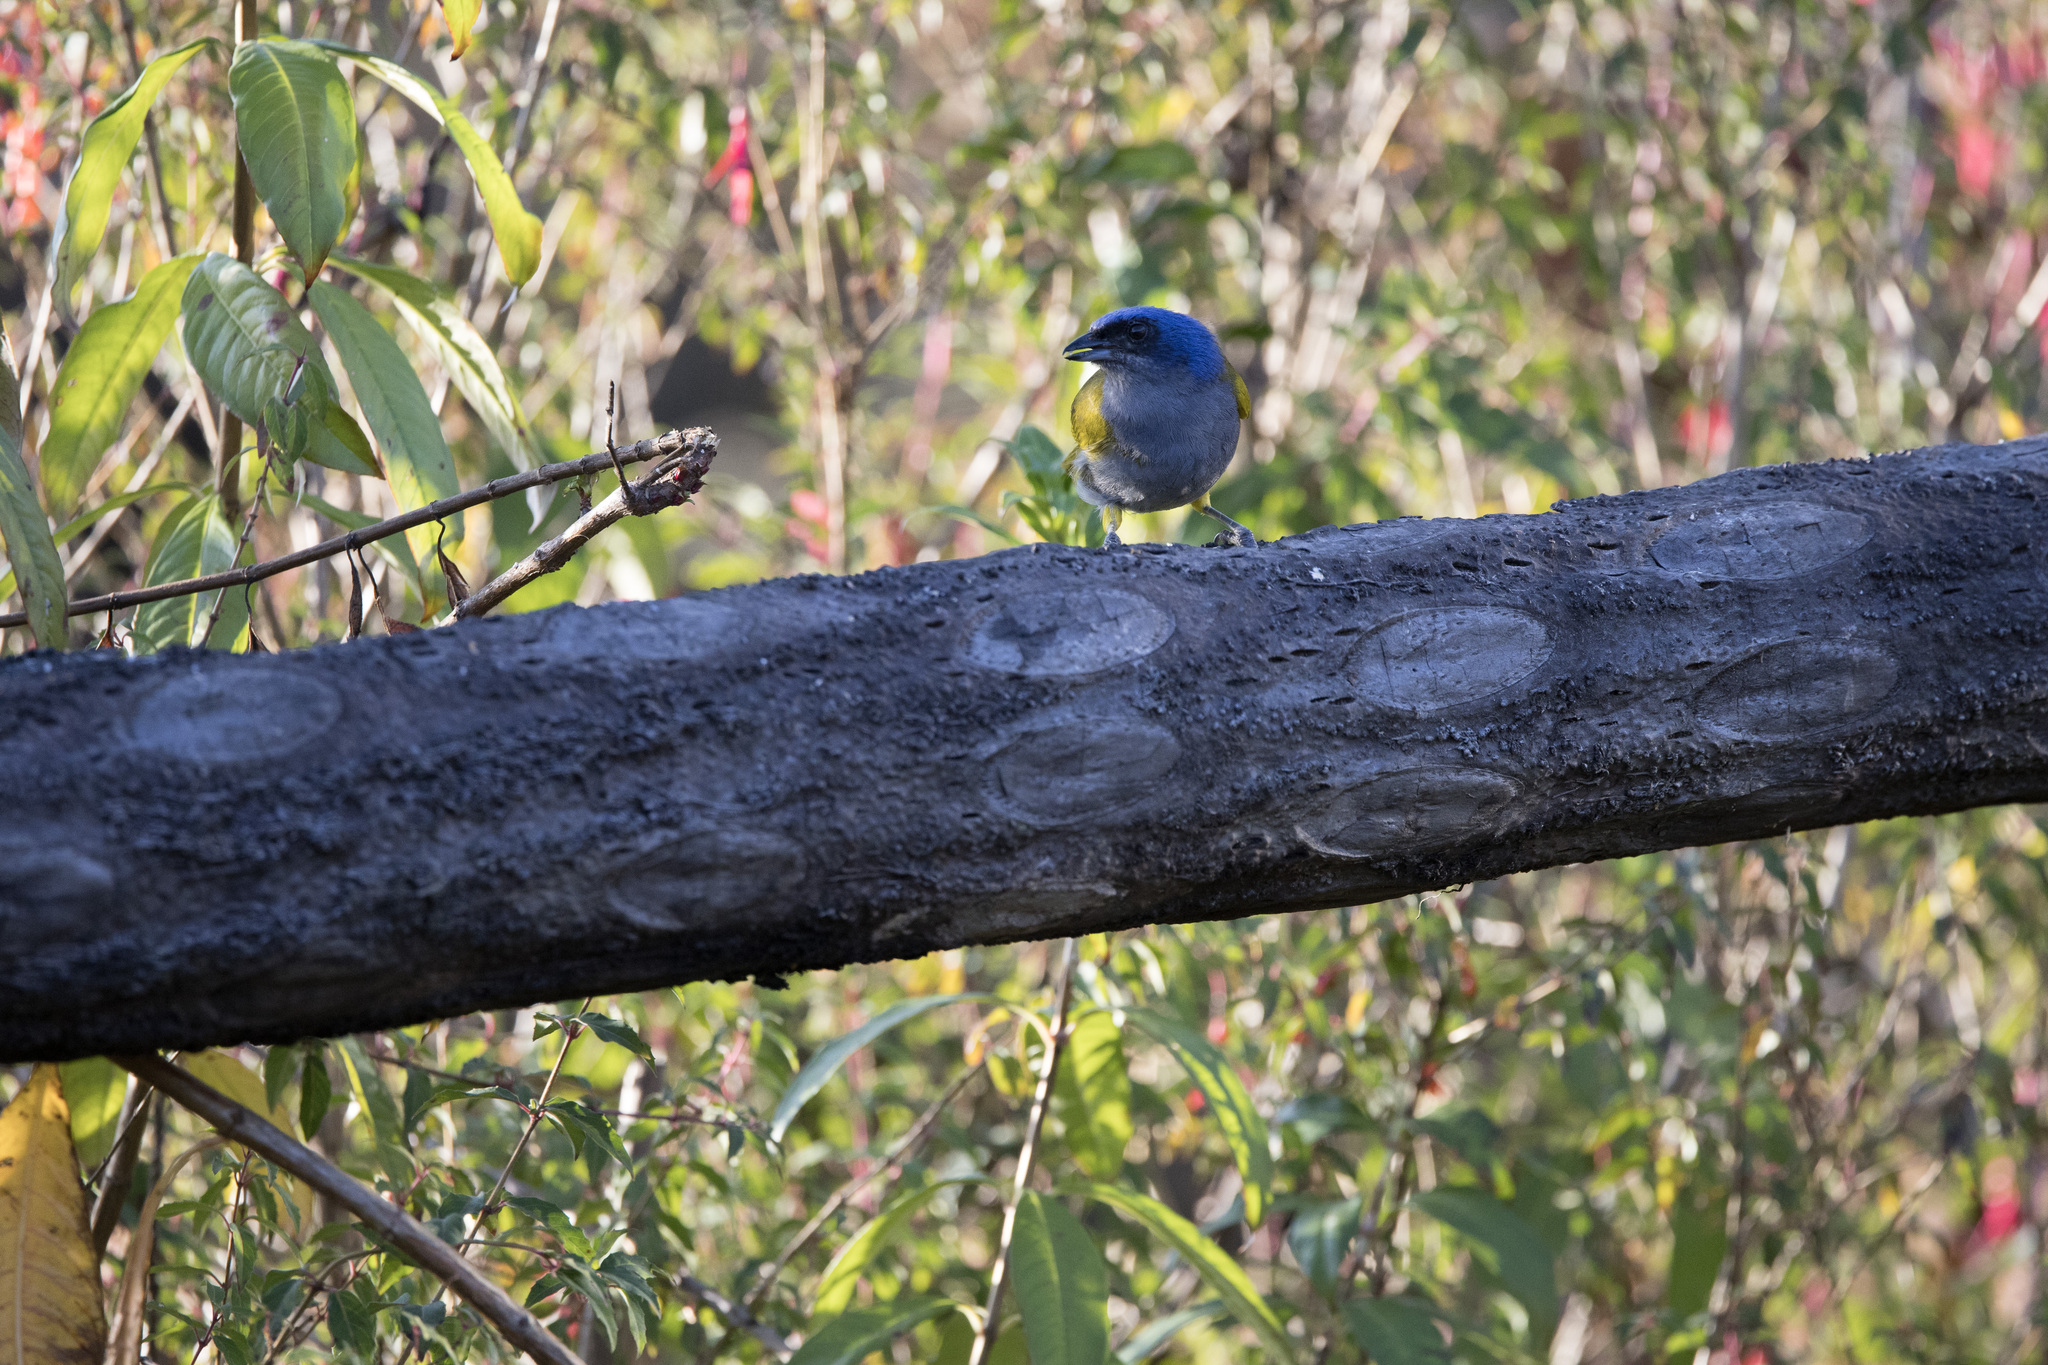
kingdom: Animalia
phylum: Chordata
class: Aves
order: Passeriformes
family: Thraupidae
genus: Sporathraupis
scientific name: Sporathraupis cyanocephala
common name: Blue-capped tanager
